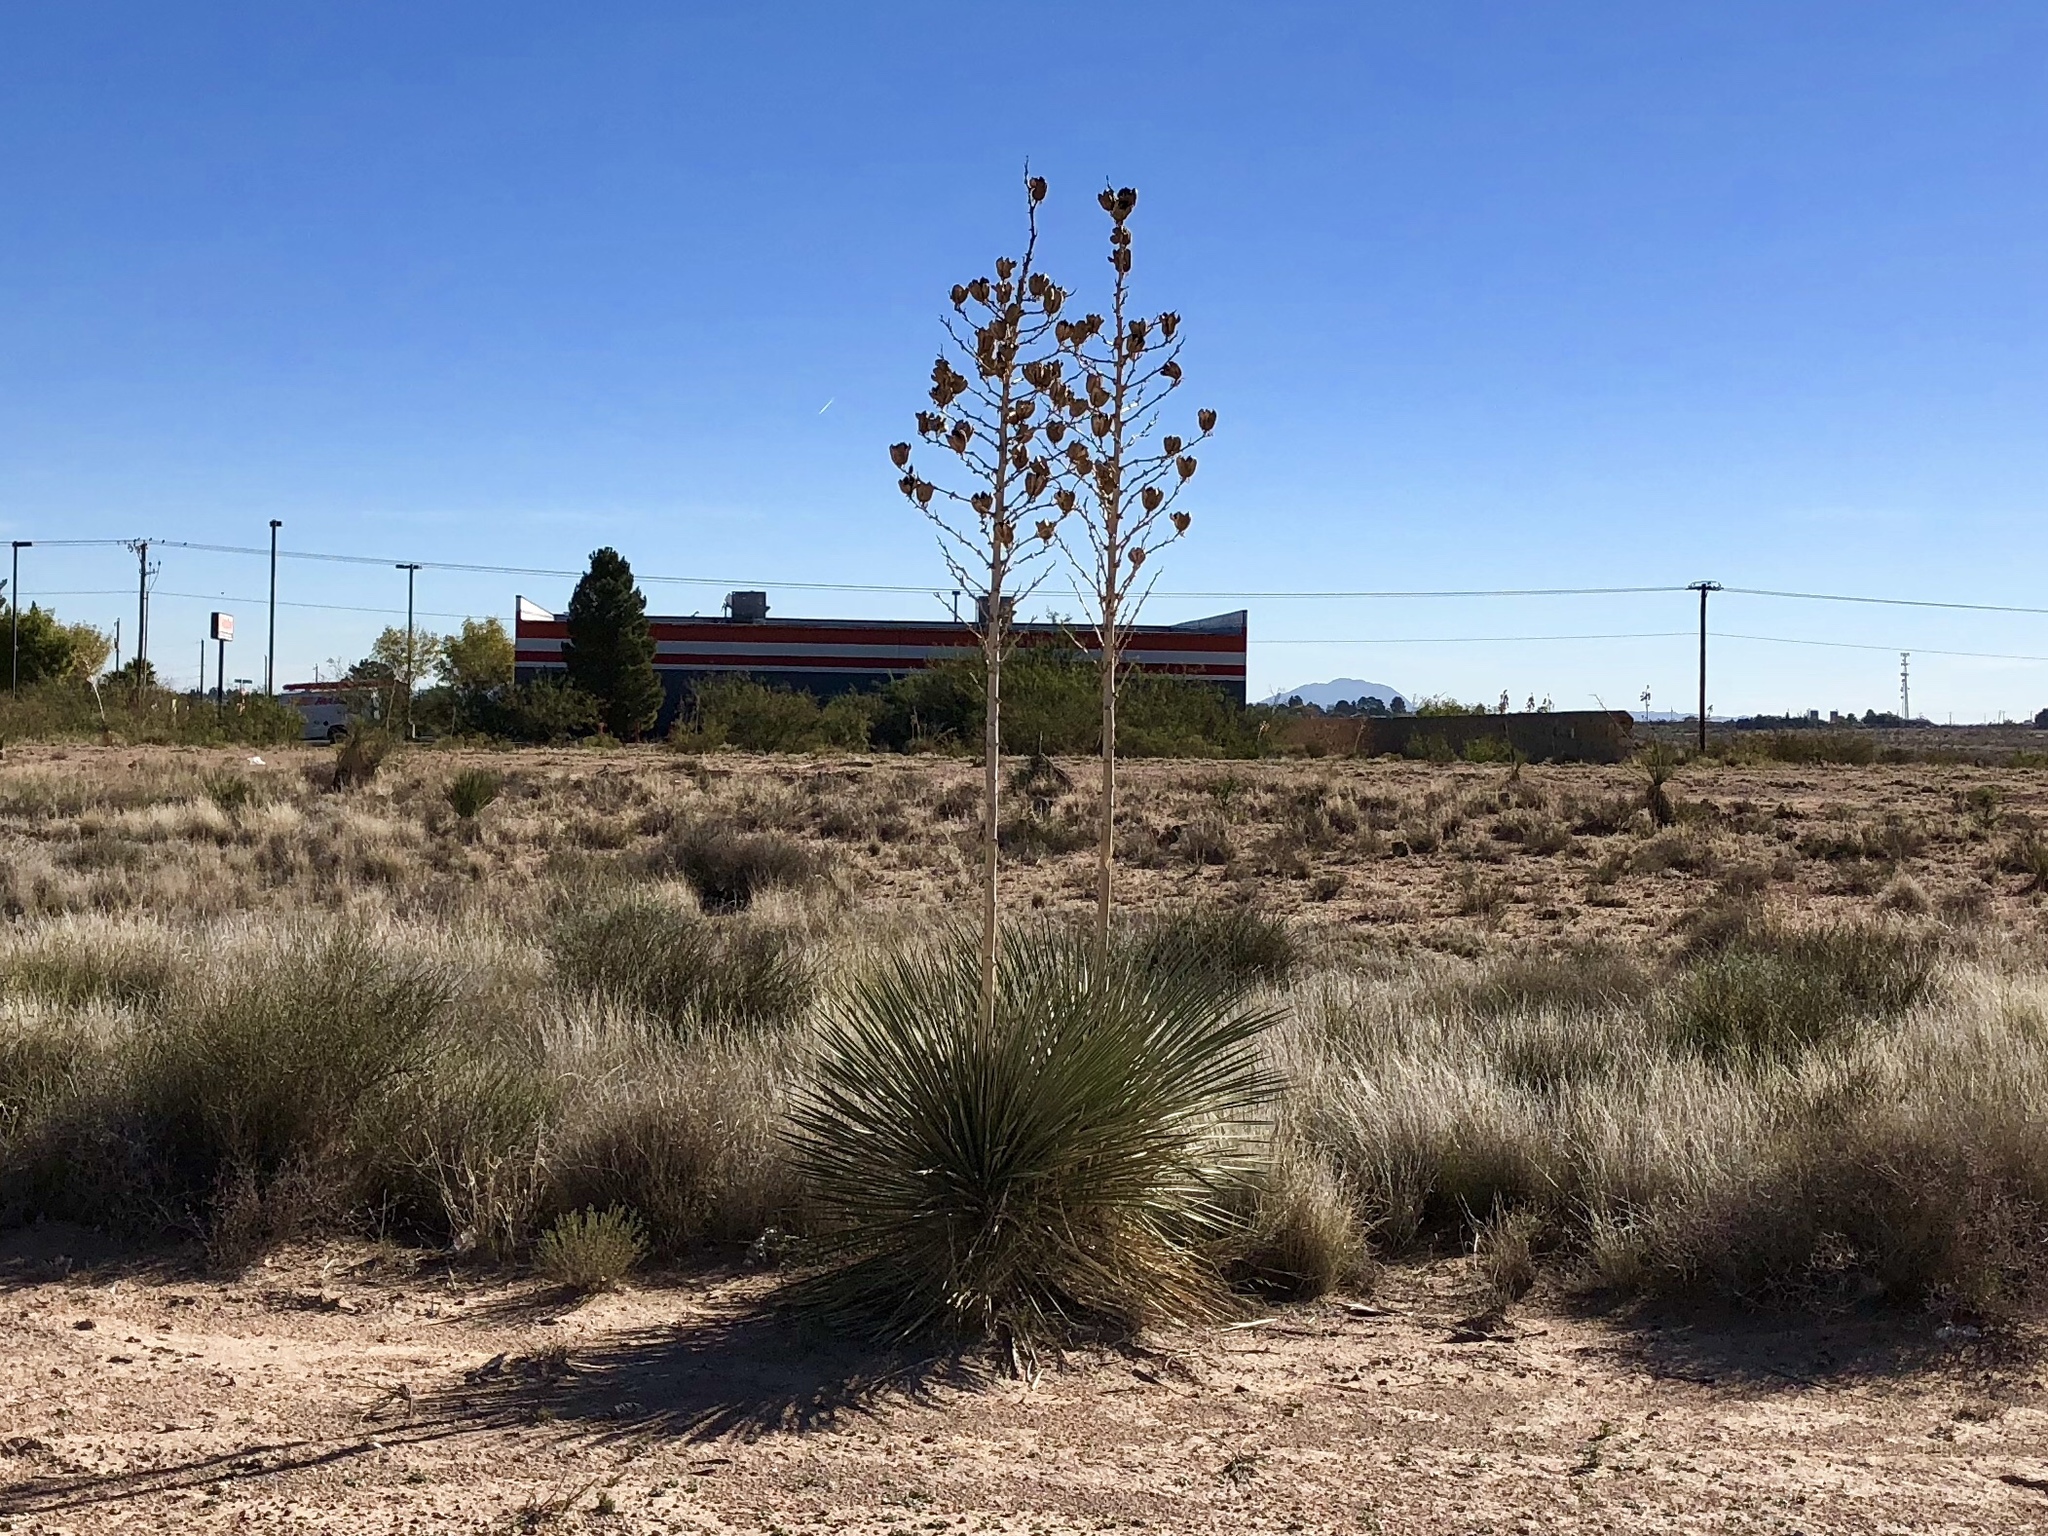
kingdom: Plantae
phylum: Tracheophyta
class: Liliopsida
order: Asparagales
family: Asparagaceae
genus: Yucca
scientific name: Yucca elata
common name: Palmella
